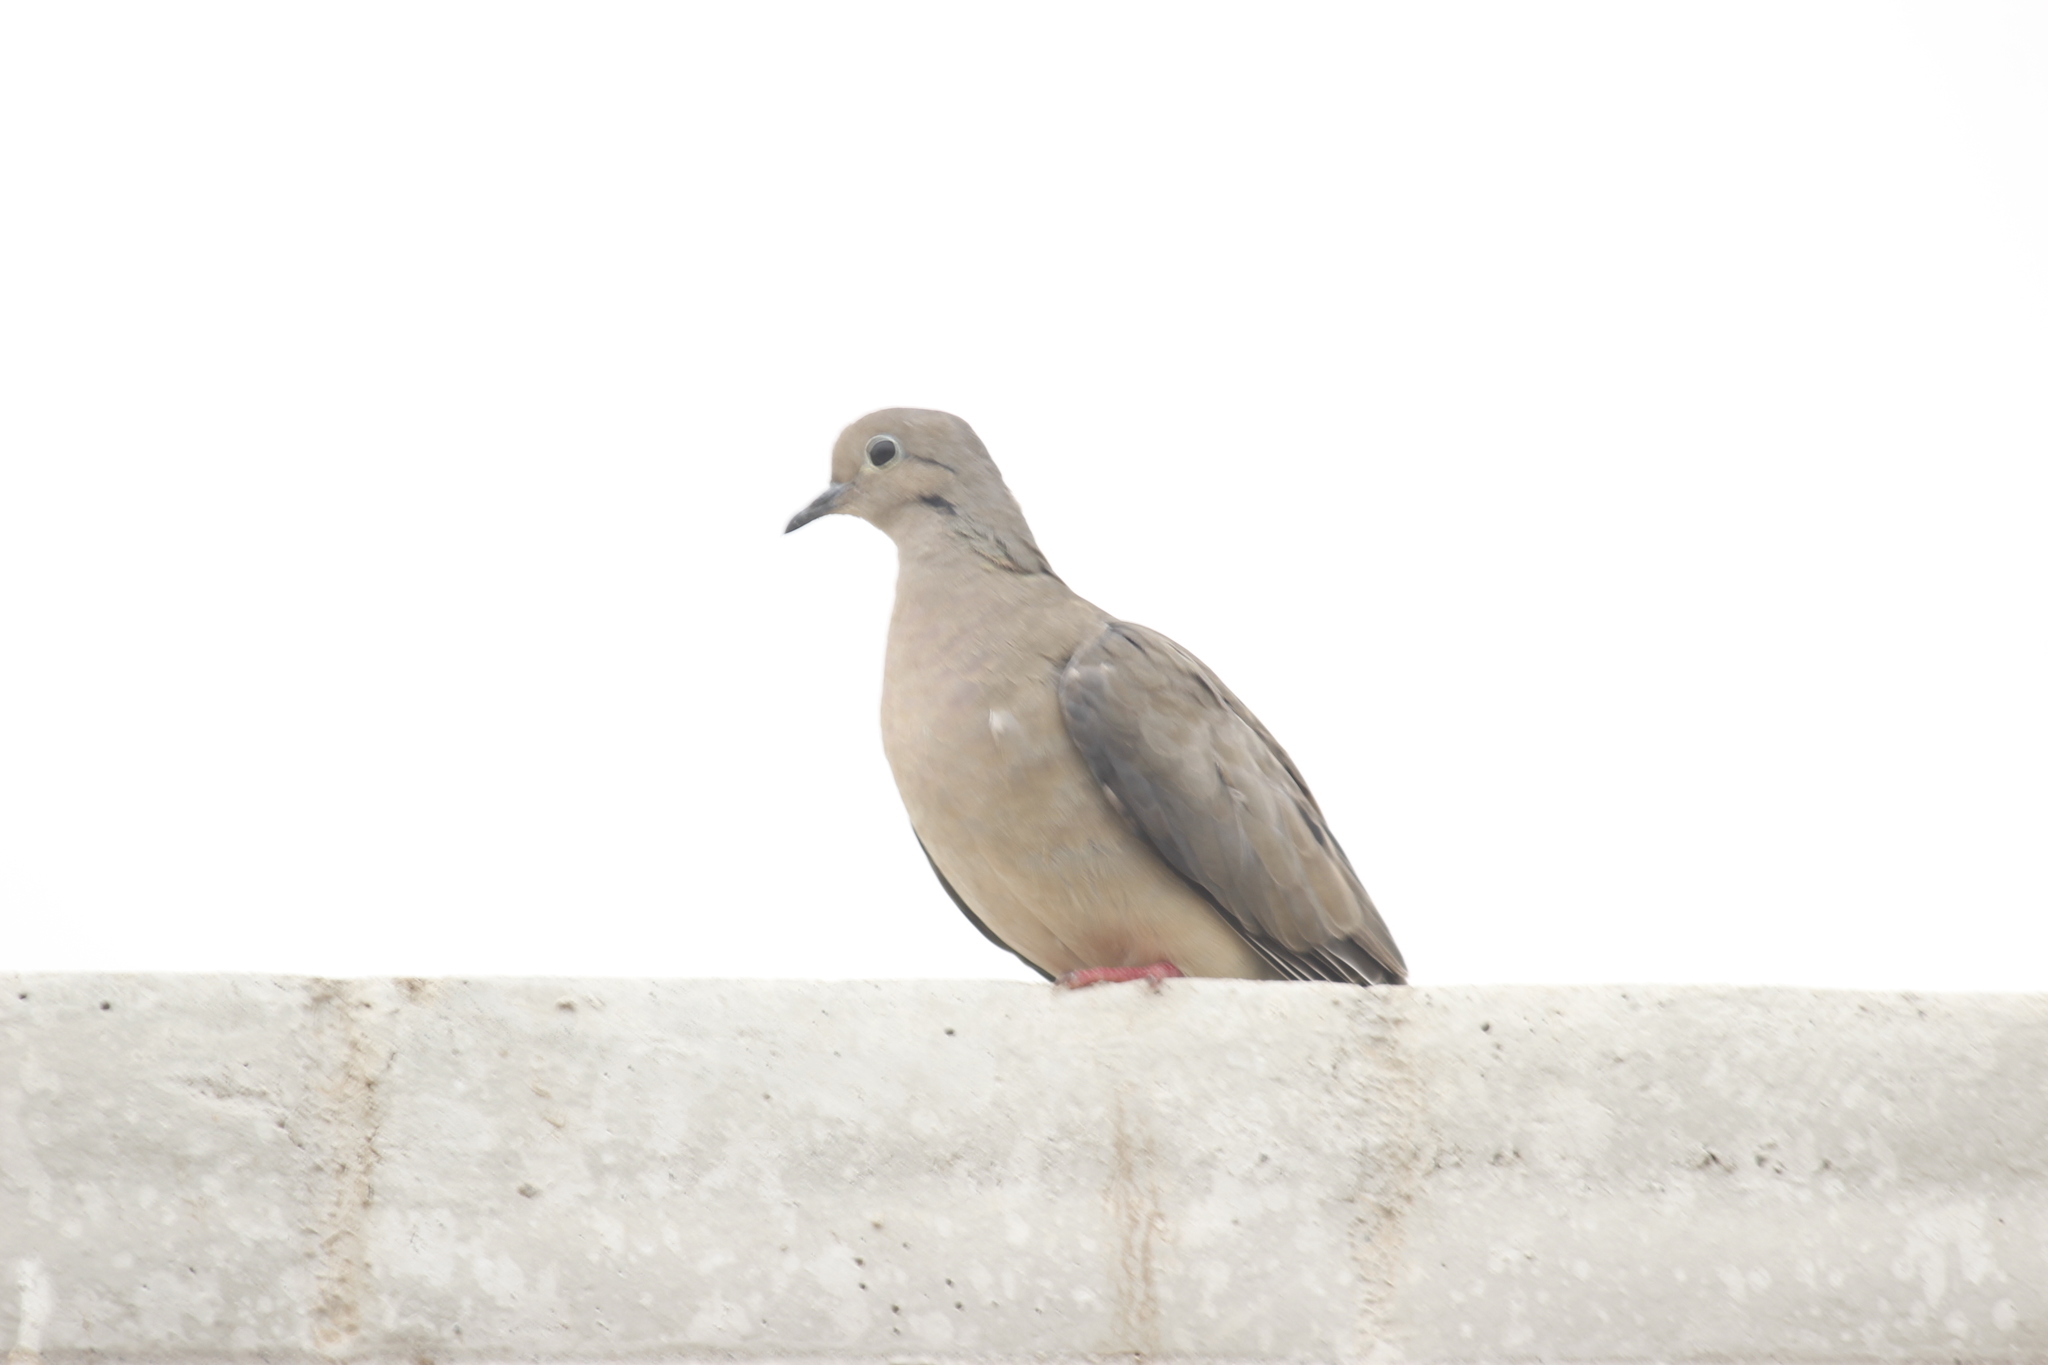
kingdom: Animalia
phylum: Chordata
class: Aves
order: Columbiformes
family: Columbidae
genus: Zenaida
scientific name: Zenaida auriculata
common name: Eared dove
